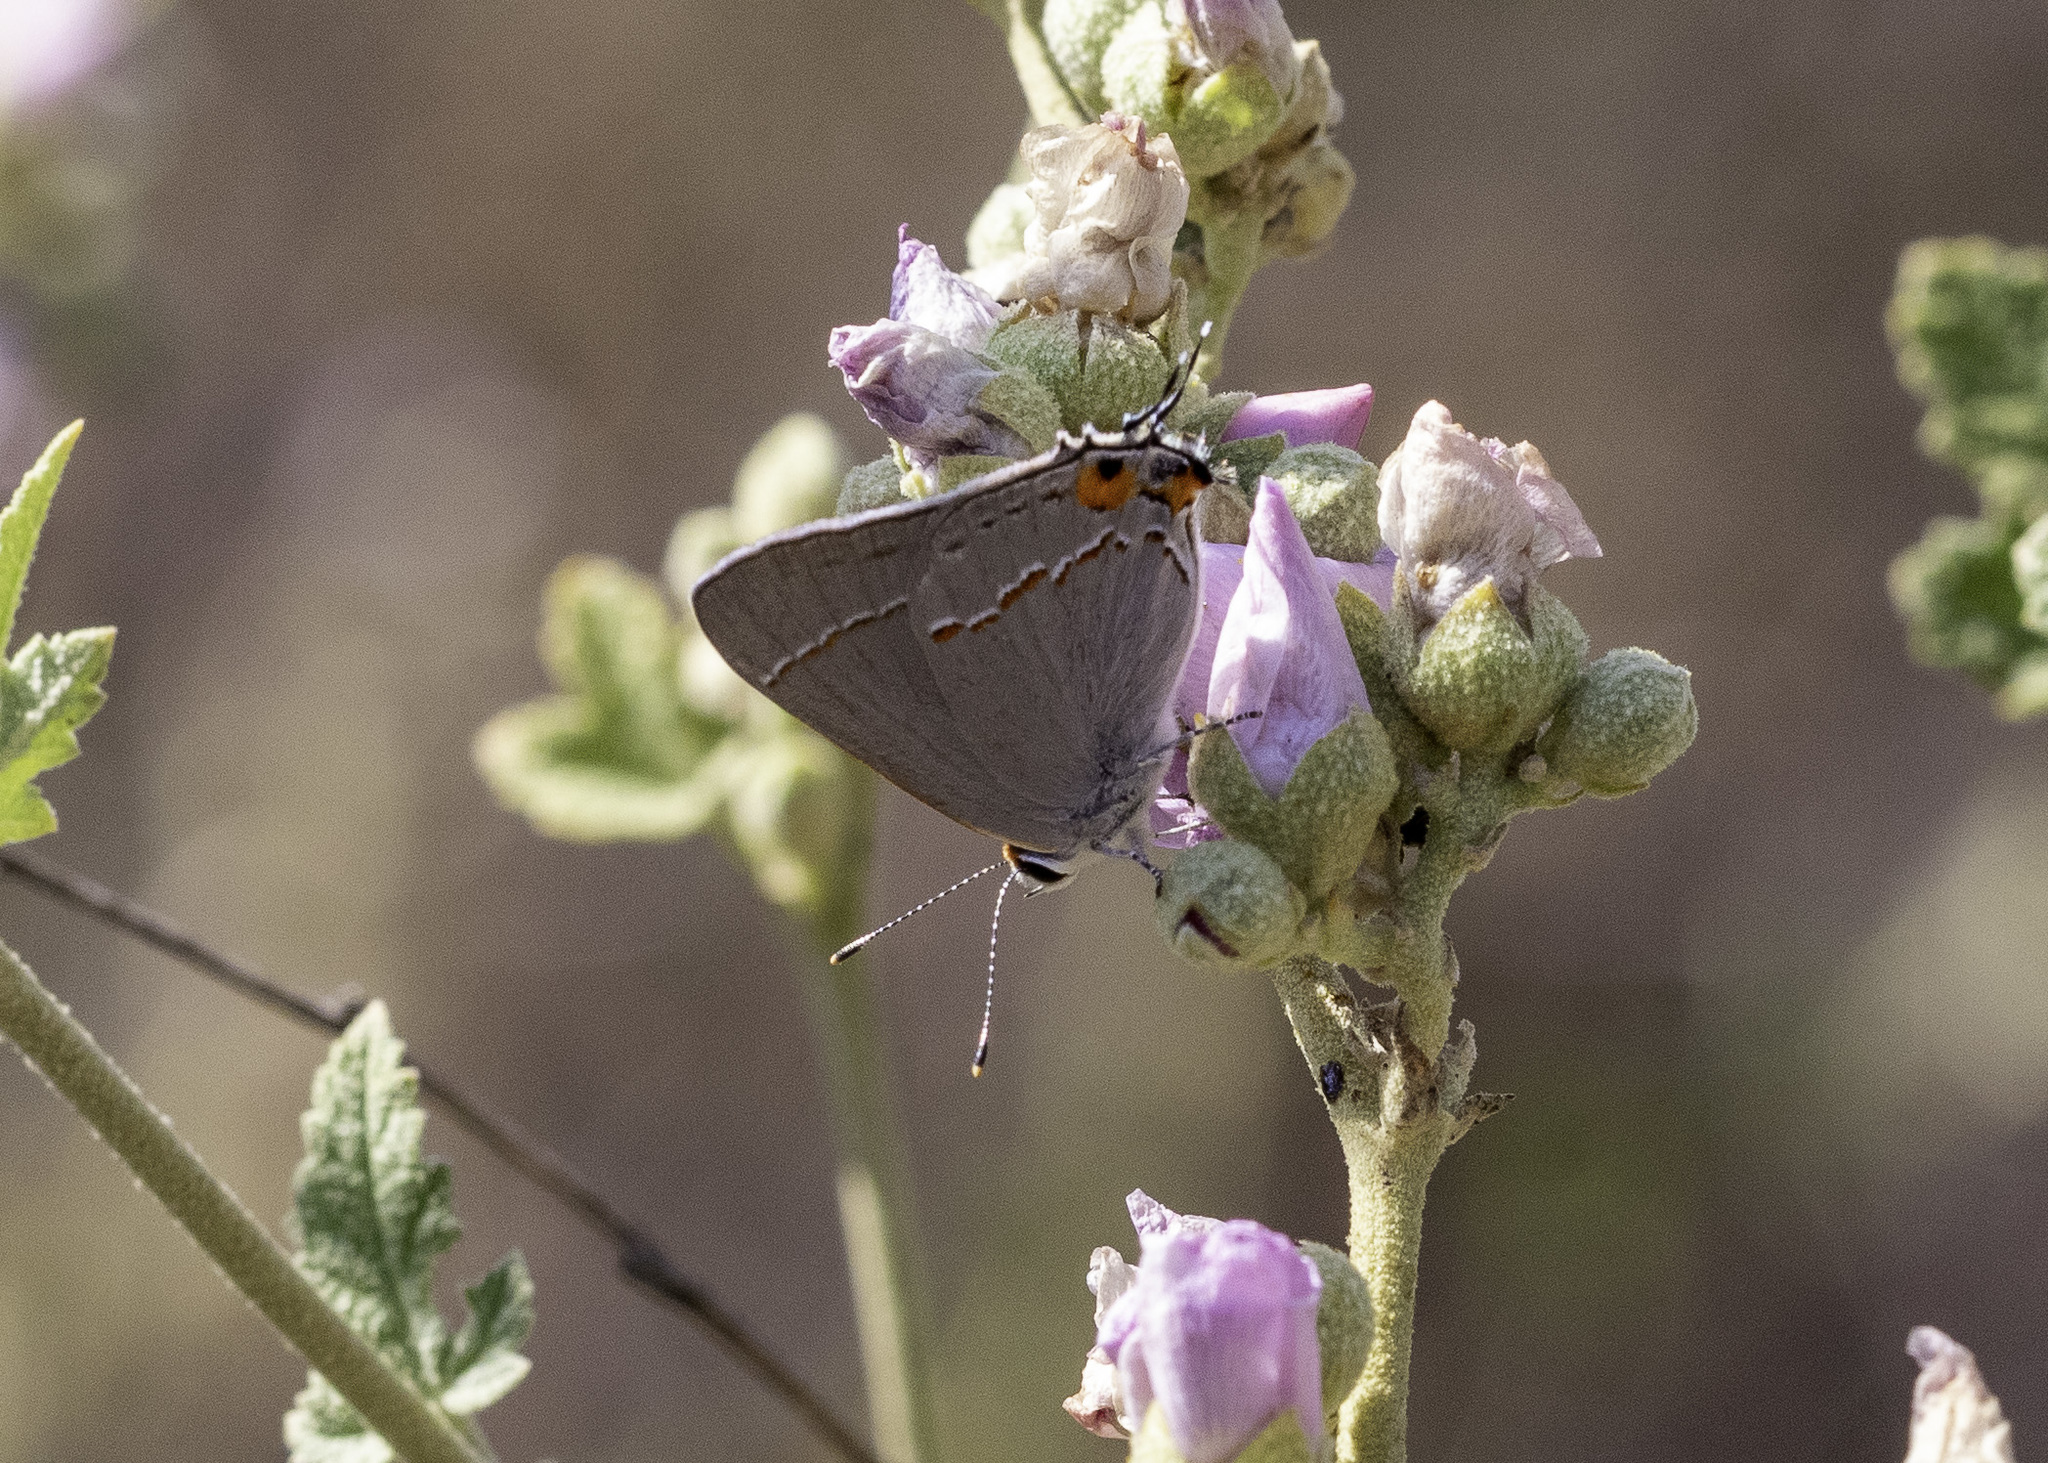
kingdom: Animalia
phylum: Arthropoda
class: Insecta
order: Lepidoptera
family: Lycaenidae
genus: Strymon
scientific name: Strymon melinus
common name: Gray hairstreak
